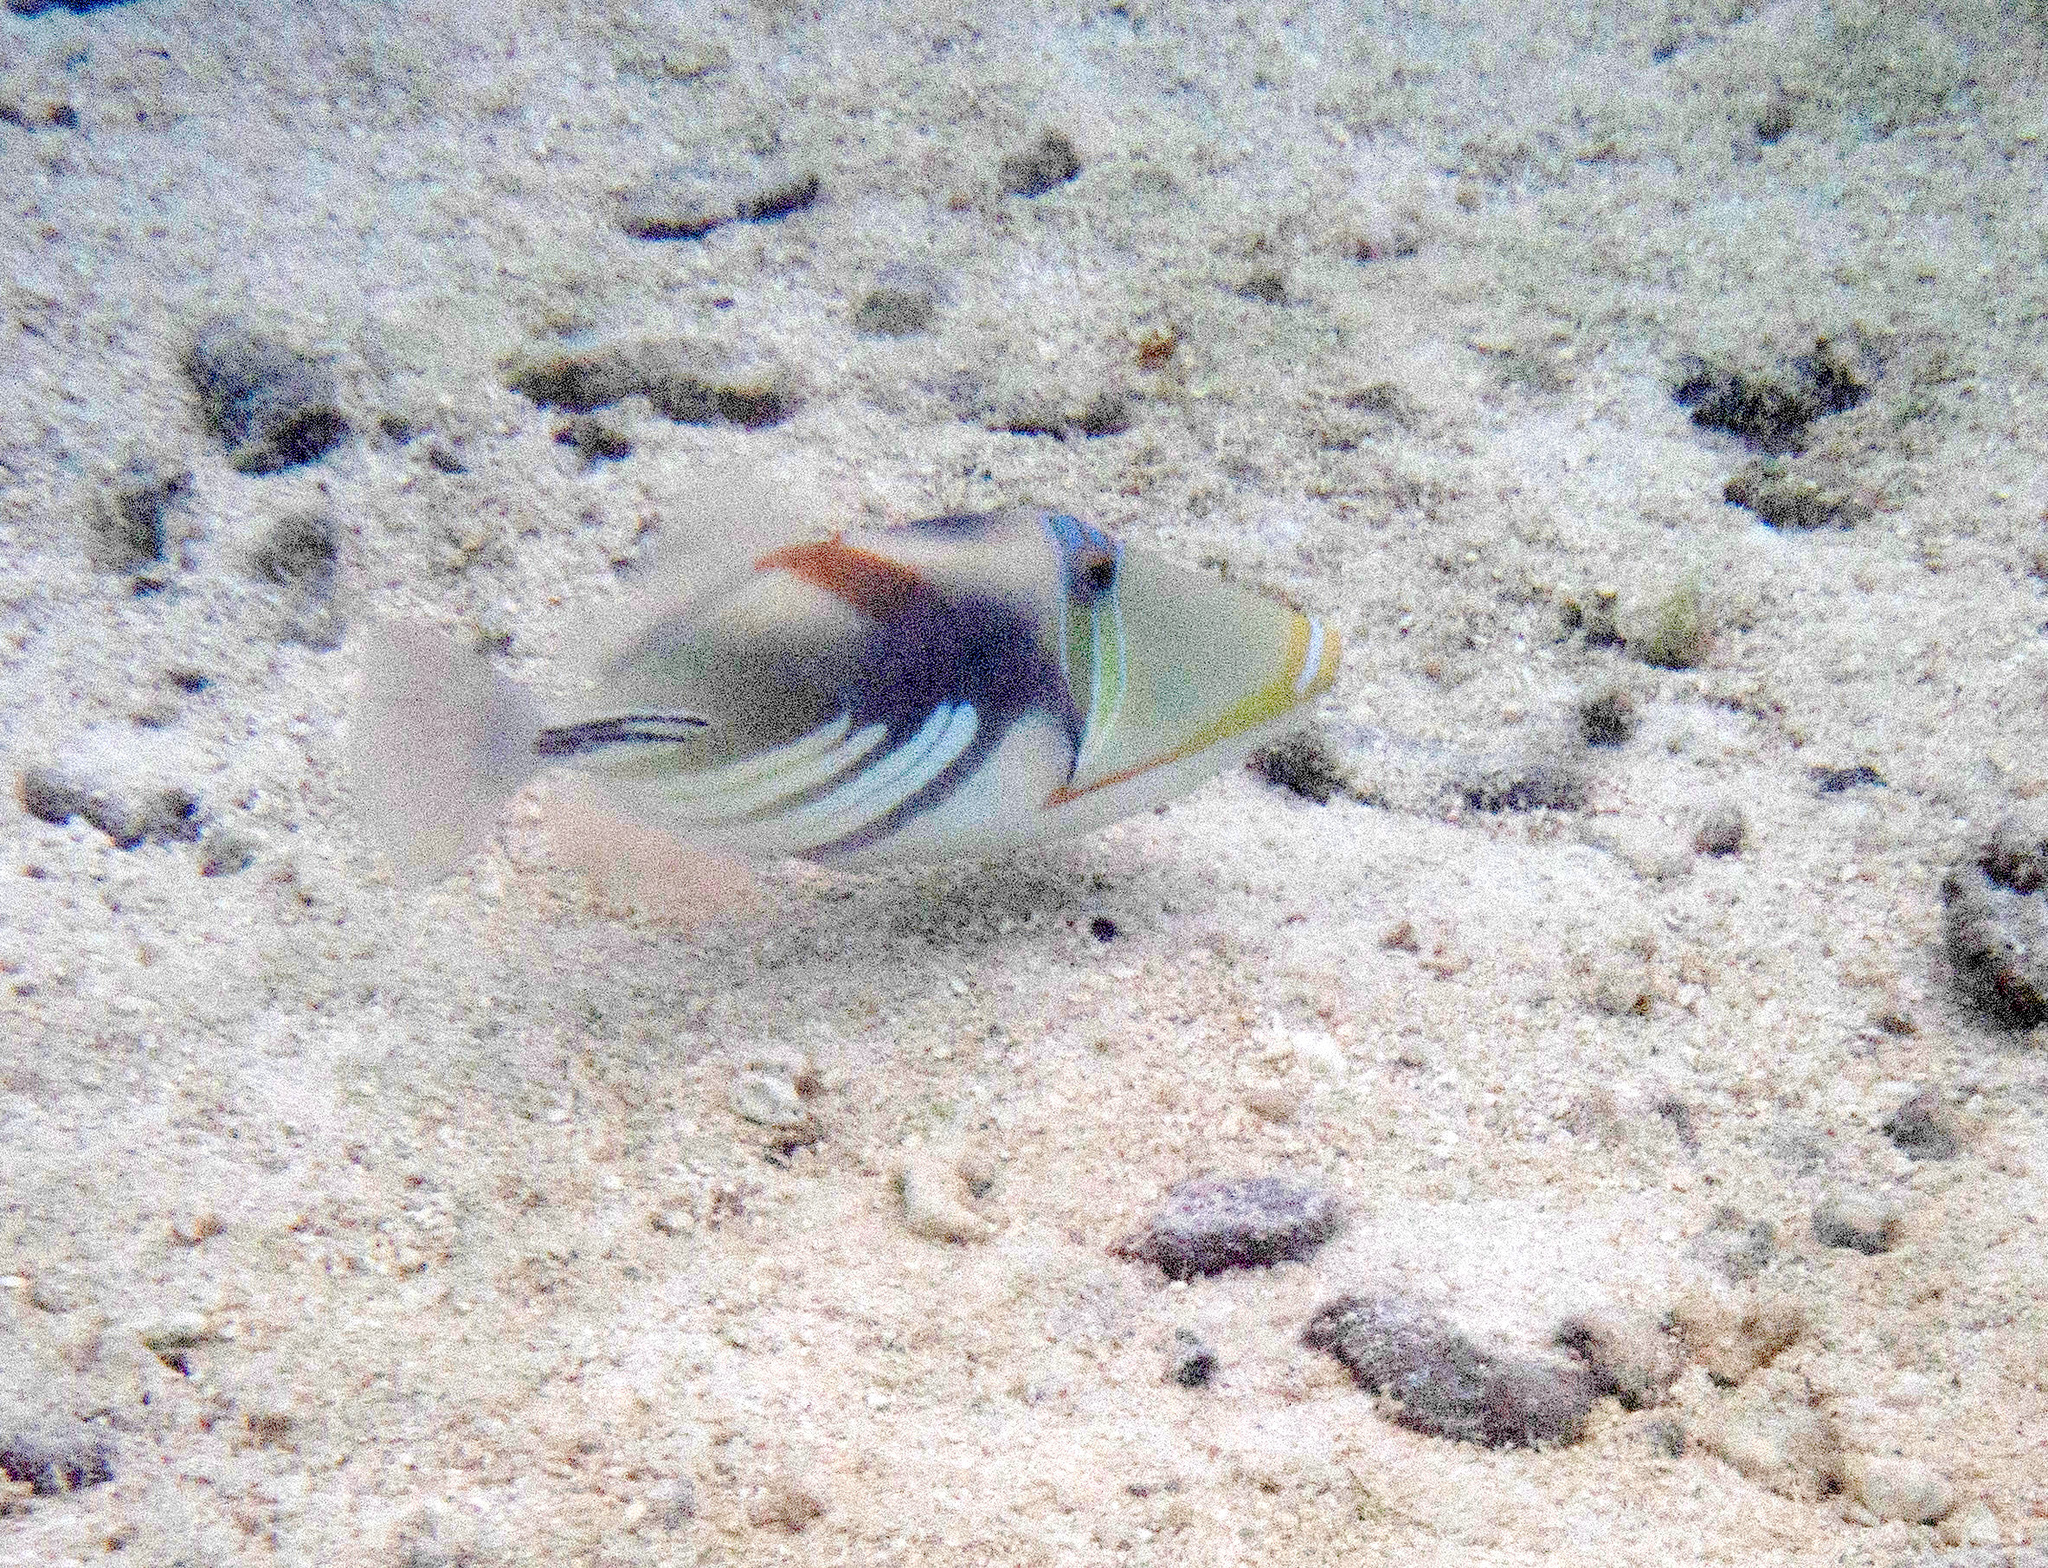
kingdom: Animalia
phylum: Chordata
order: Tetraodontiformes
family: Balistidae
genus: Rhinecanthus
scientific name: Rhinecanthus aculeatus
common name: White-banded triggerfish
